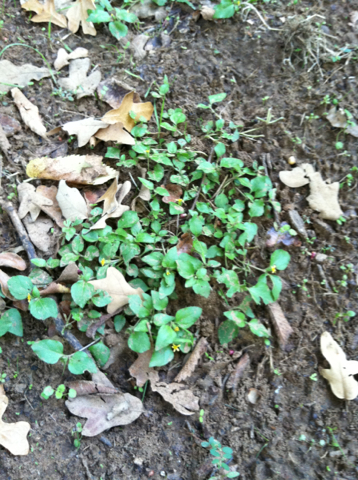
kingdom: Plantae
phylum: Tracheophyta
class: Magnoliopsida
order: Asterales
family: Asteraceae
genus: Calyptocarpus
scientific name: Calyptocarpus vialis
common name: Straggler daisy
